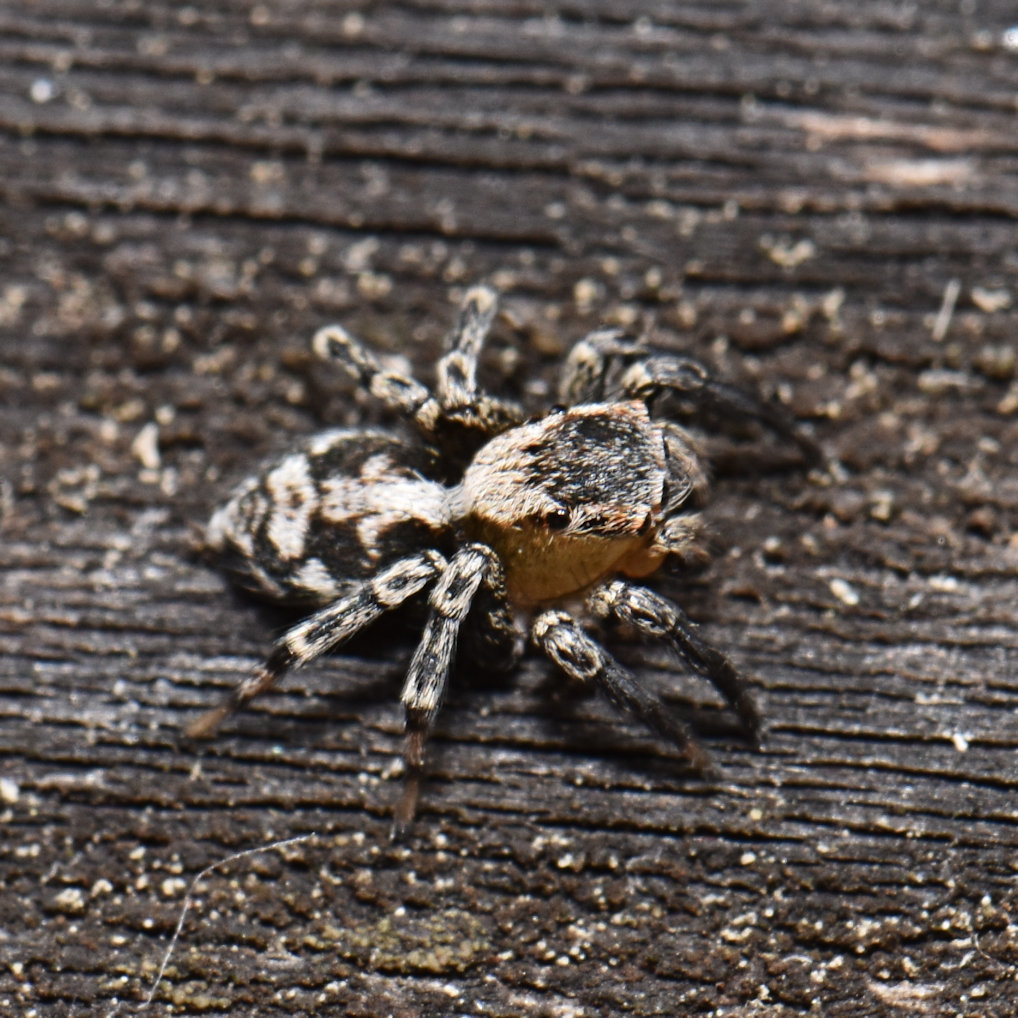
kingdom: Animalia
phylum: Arthropoda
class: Arachnida
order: Araneae
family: Salticidae
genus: Naphrys
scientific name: Naphrys pulex
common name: Flea jumping spider
